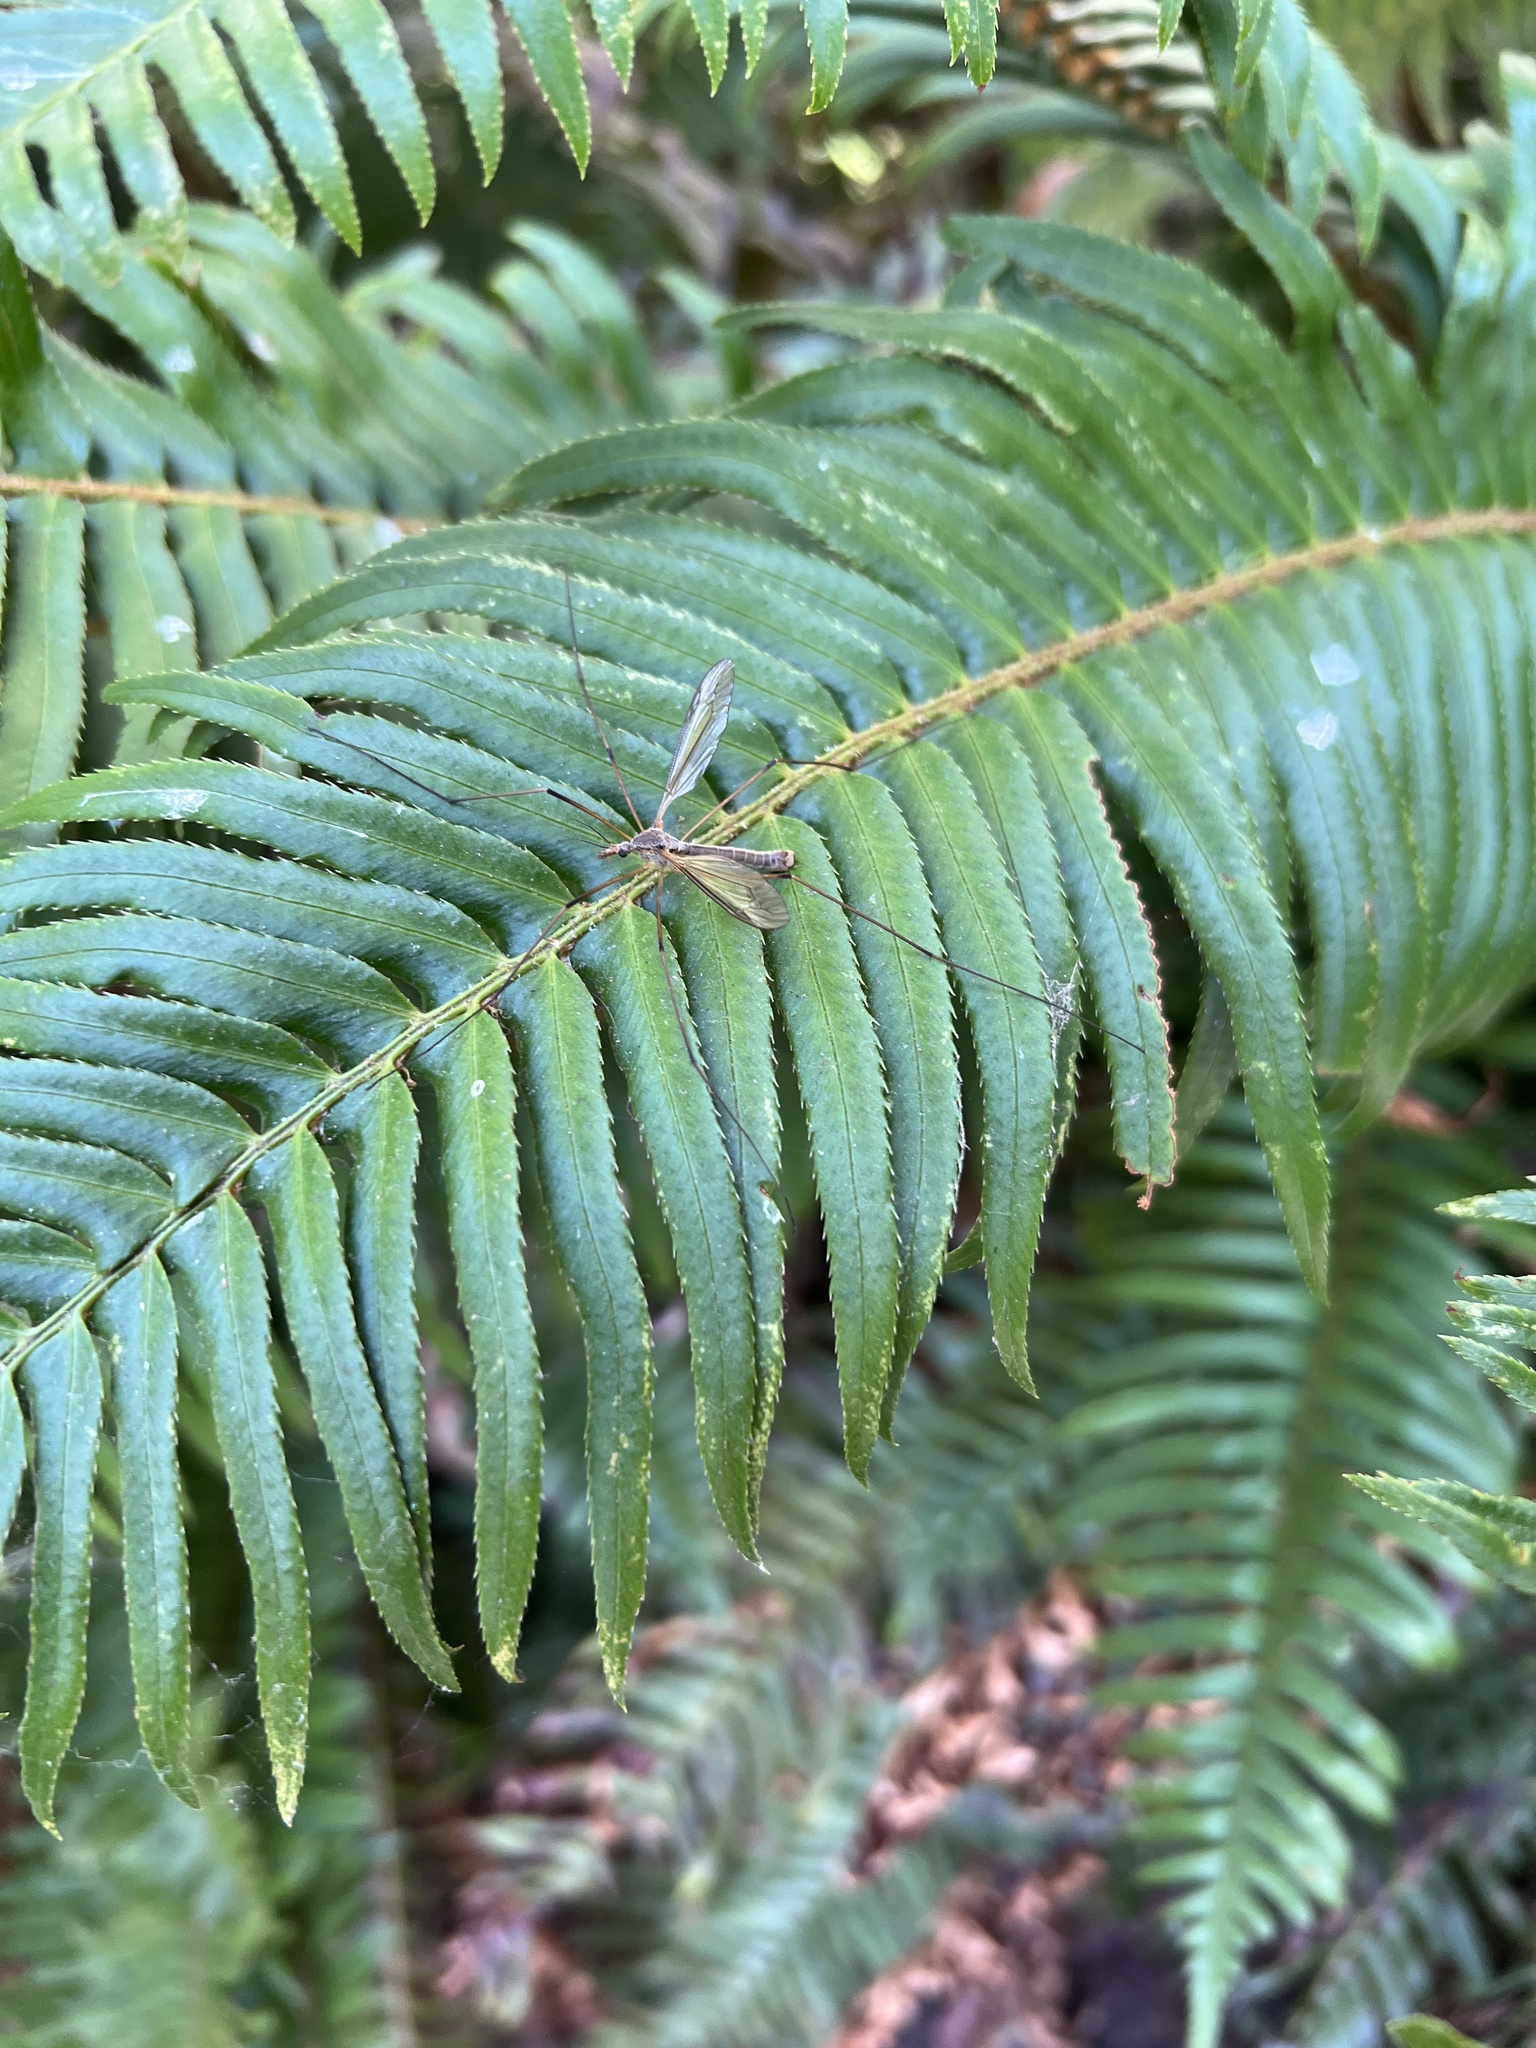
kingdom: Animalia
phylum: Arthropoda
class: Insecta
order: Diptera
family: Tipulidae
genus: Tipula
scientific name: Tipula paludosa
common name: European cranefly
